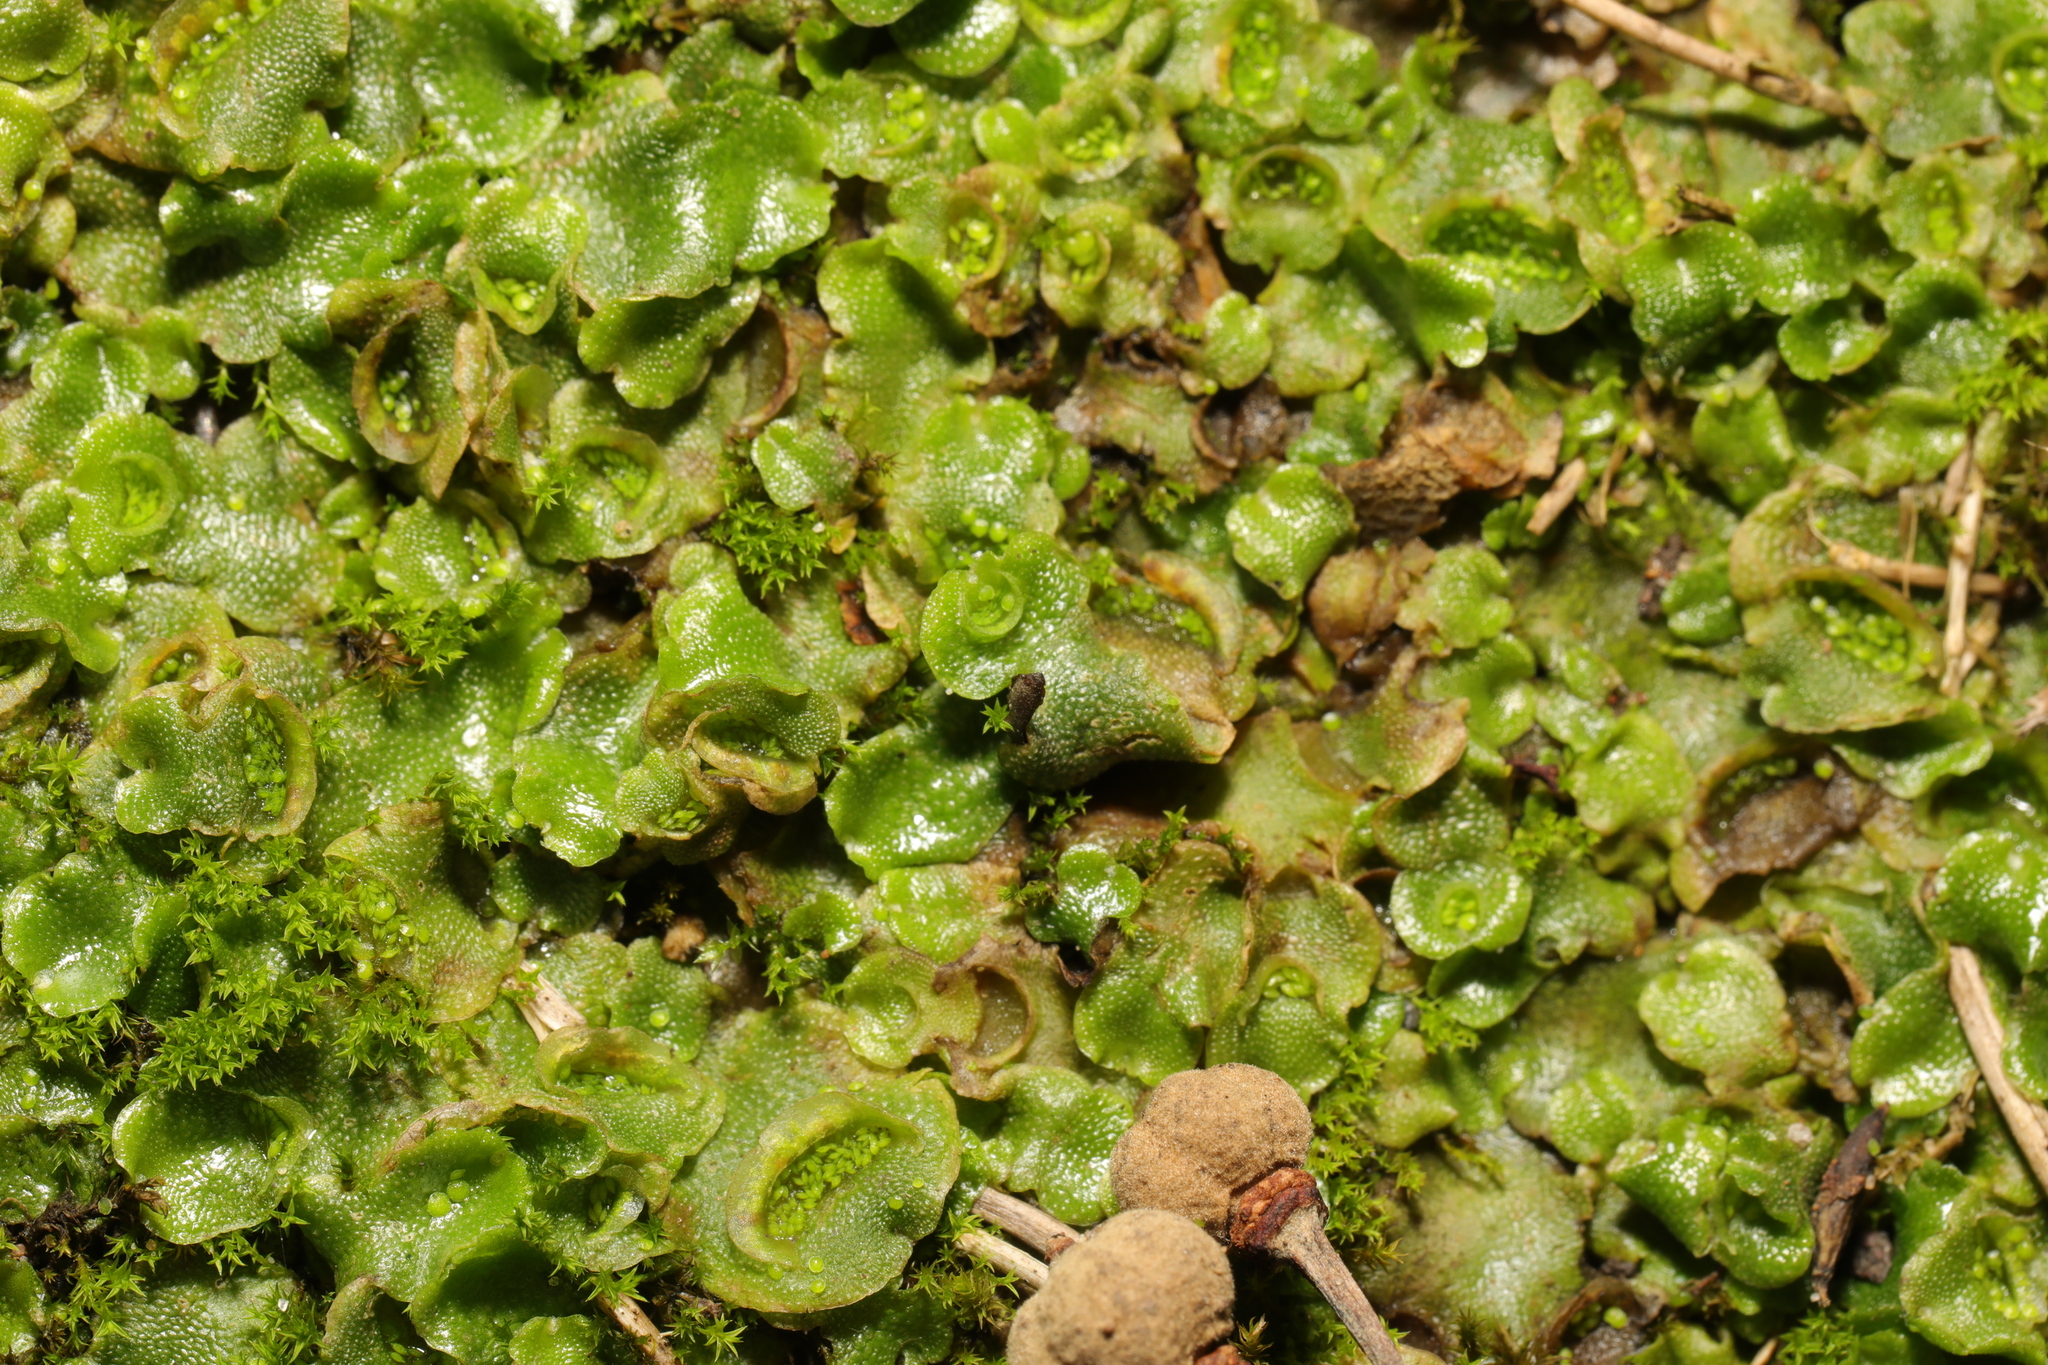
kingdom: Plantae
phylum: Marchantiophyta
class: Marchantiopsida
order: Lunulariales
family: Lunulariaceae
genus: Lunularia
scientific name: Lunularia cruciata
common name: Crescent-cup liverwort
